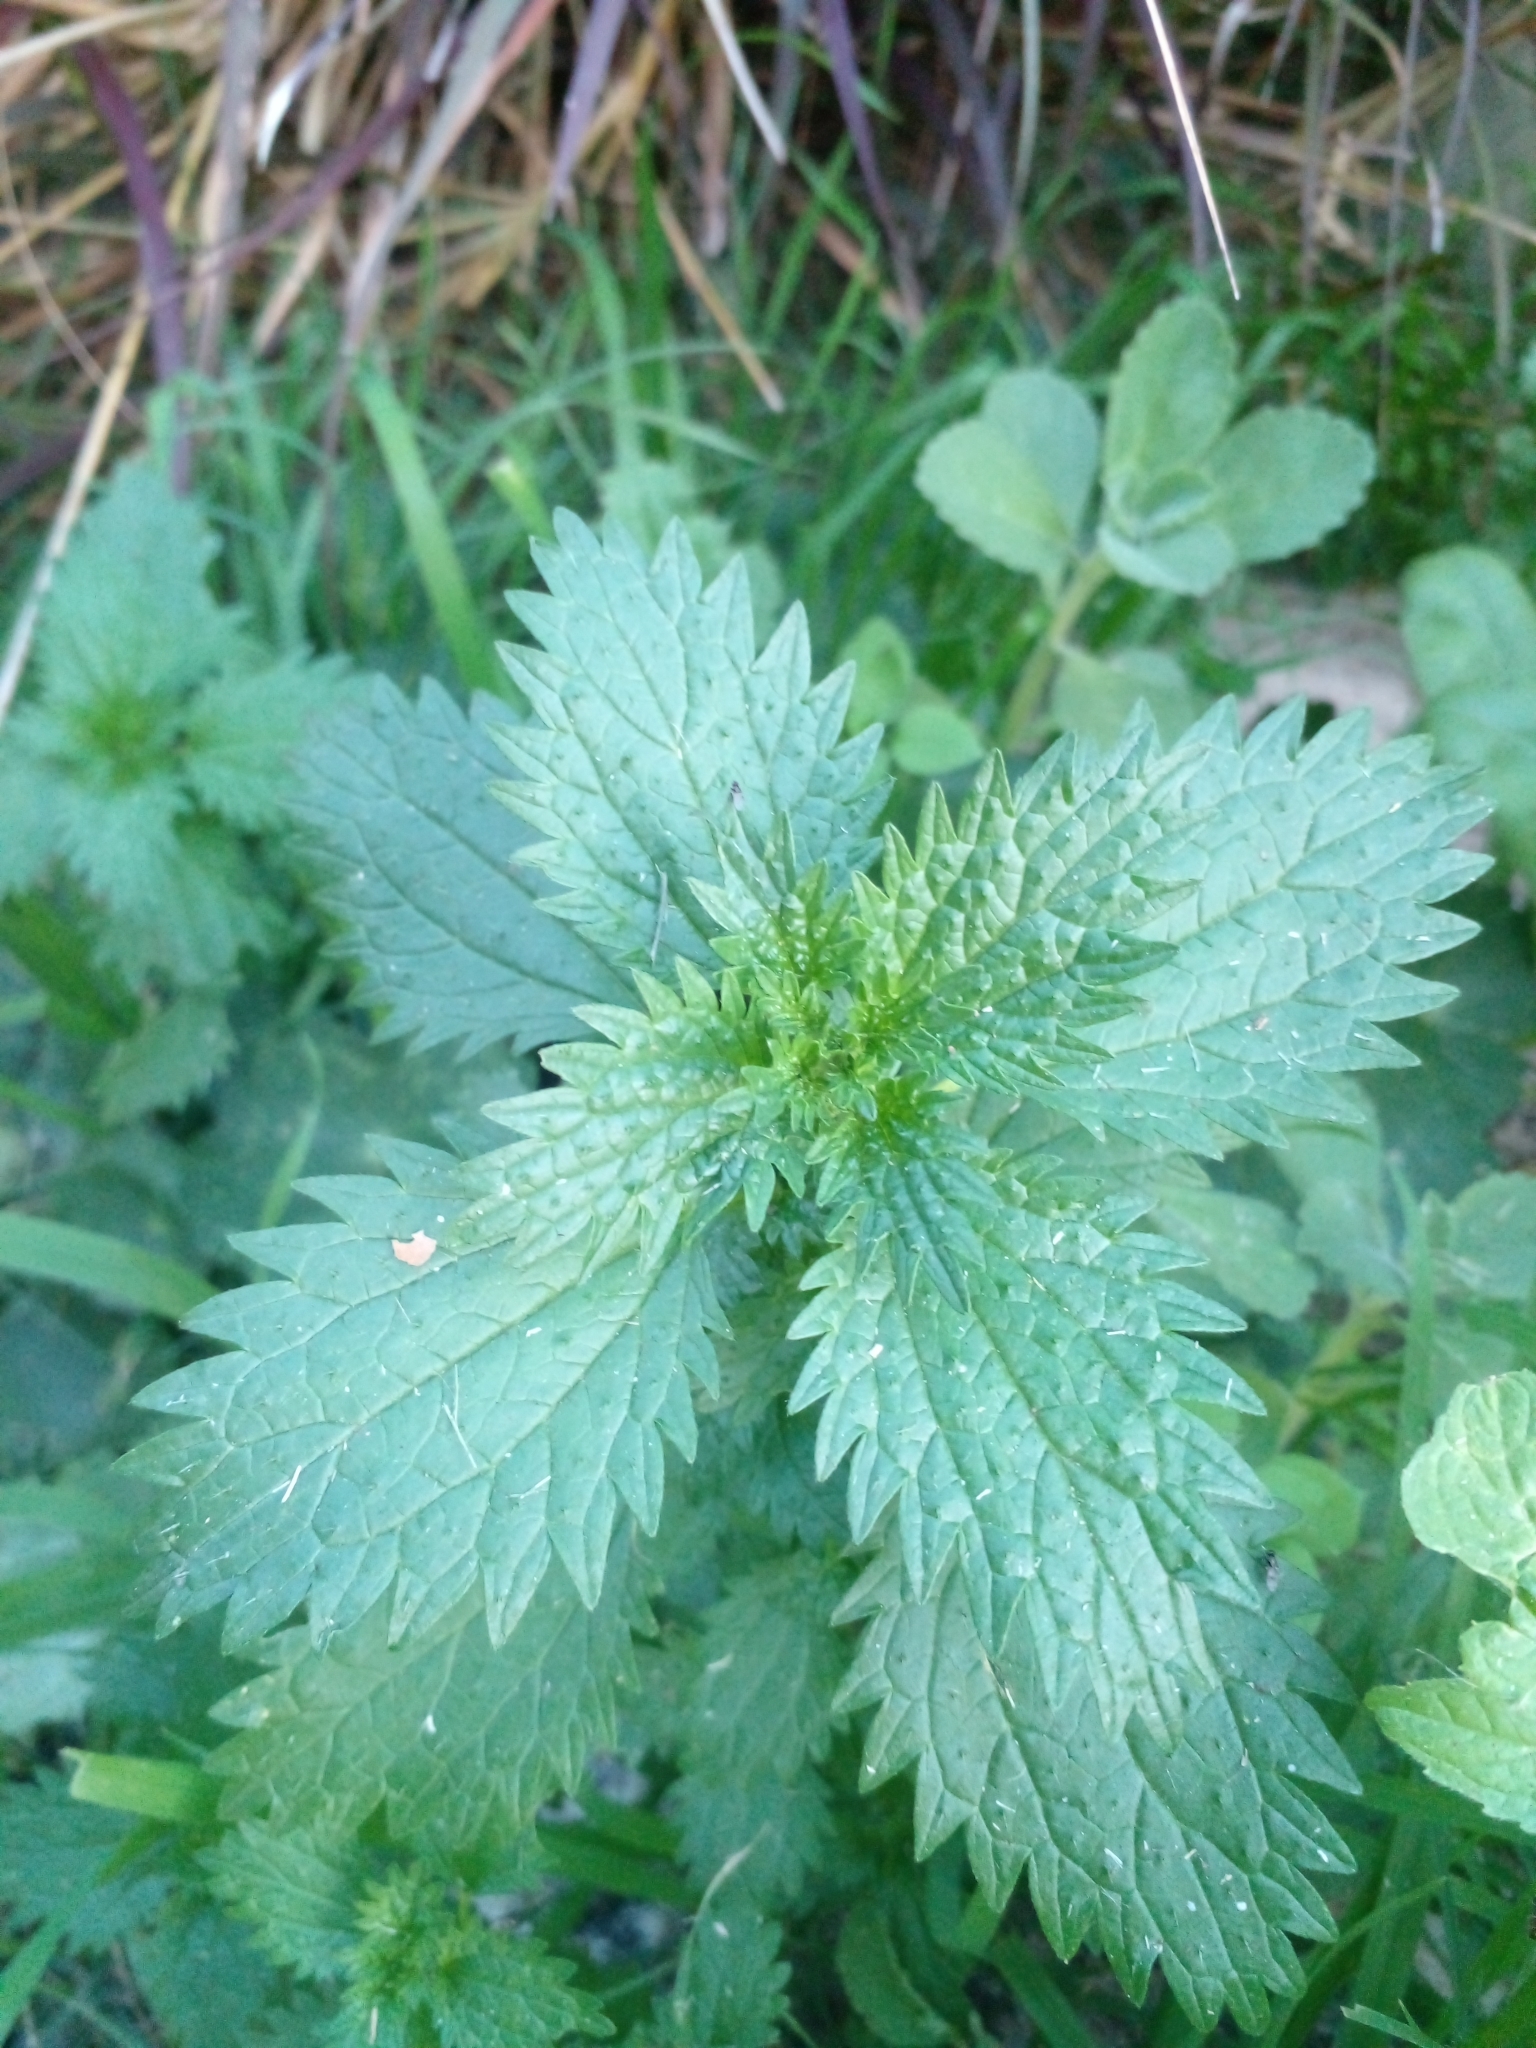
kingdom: Plantae
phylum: Tracheophyta
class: Magnoliopsida
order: Rosales
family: Urticaceae
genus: Urtica
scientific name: Urtica urens
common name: Dwarf nettle
